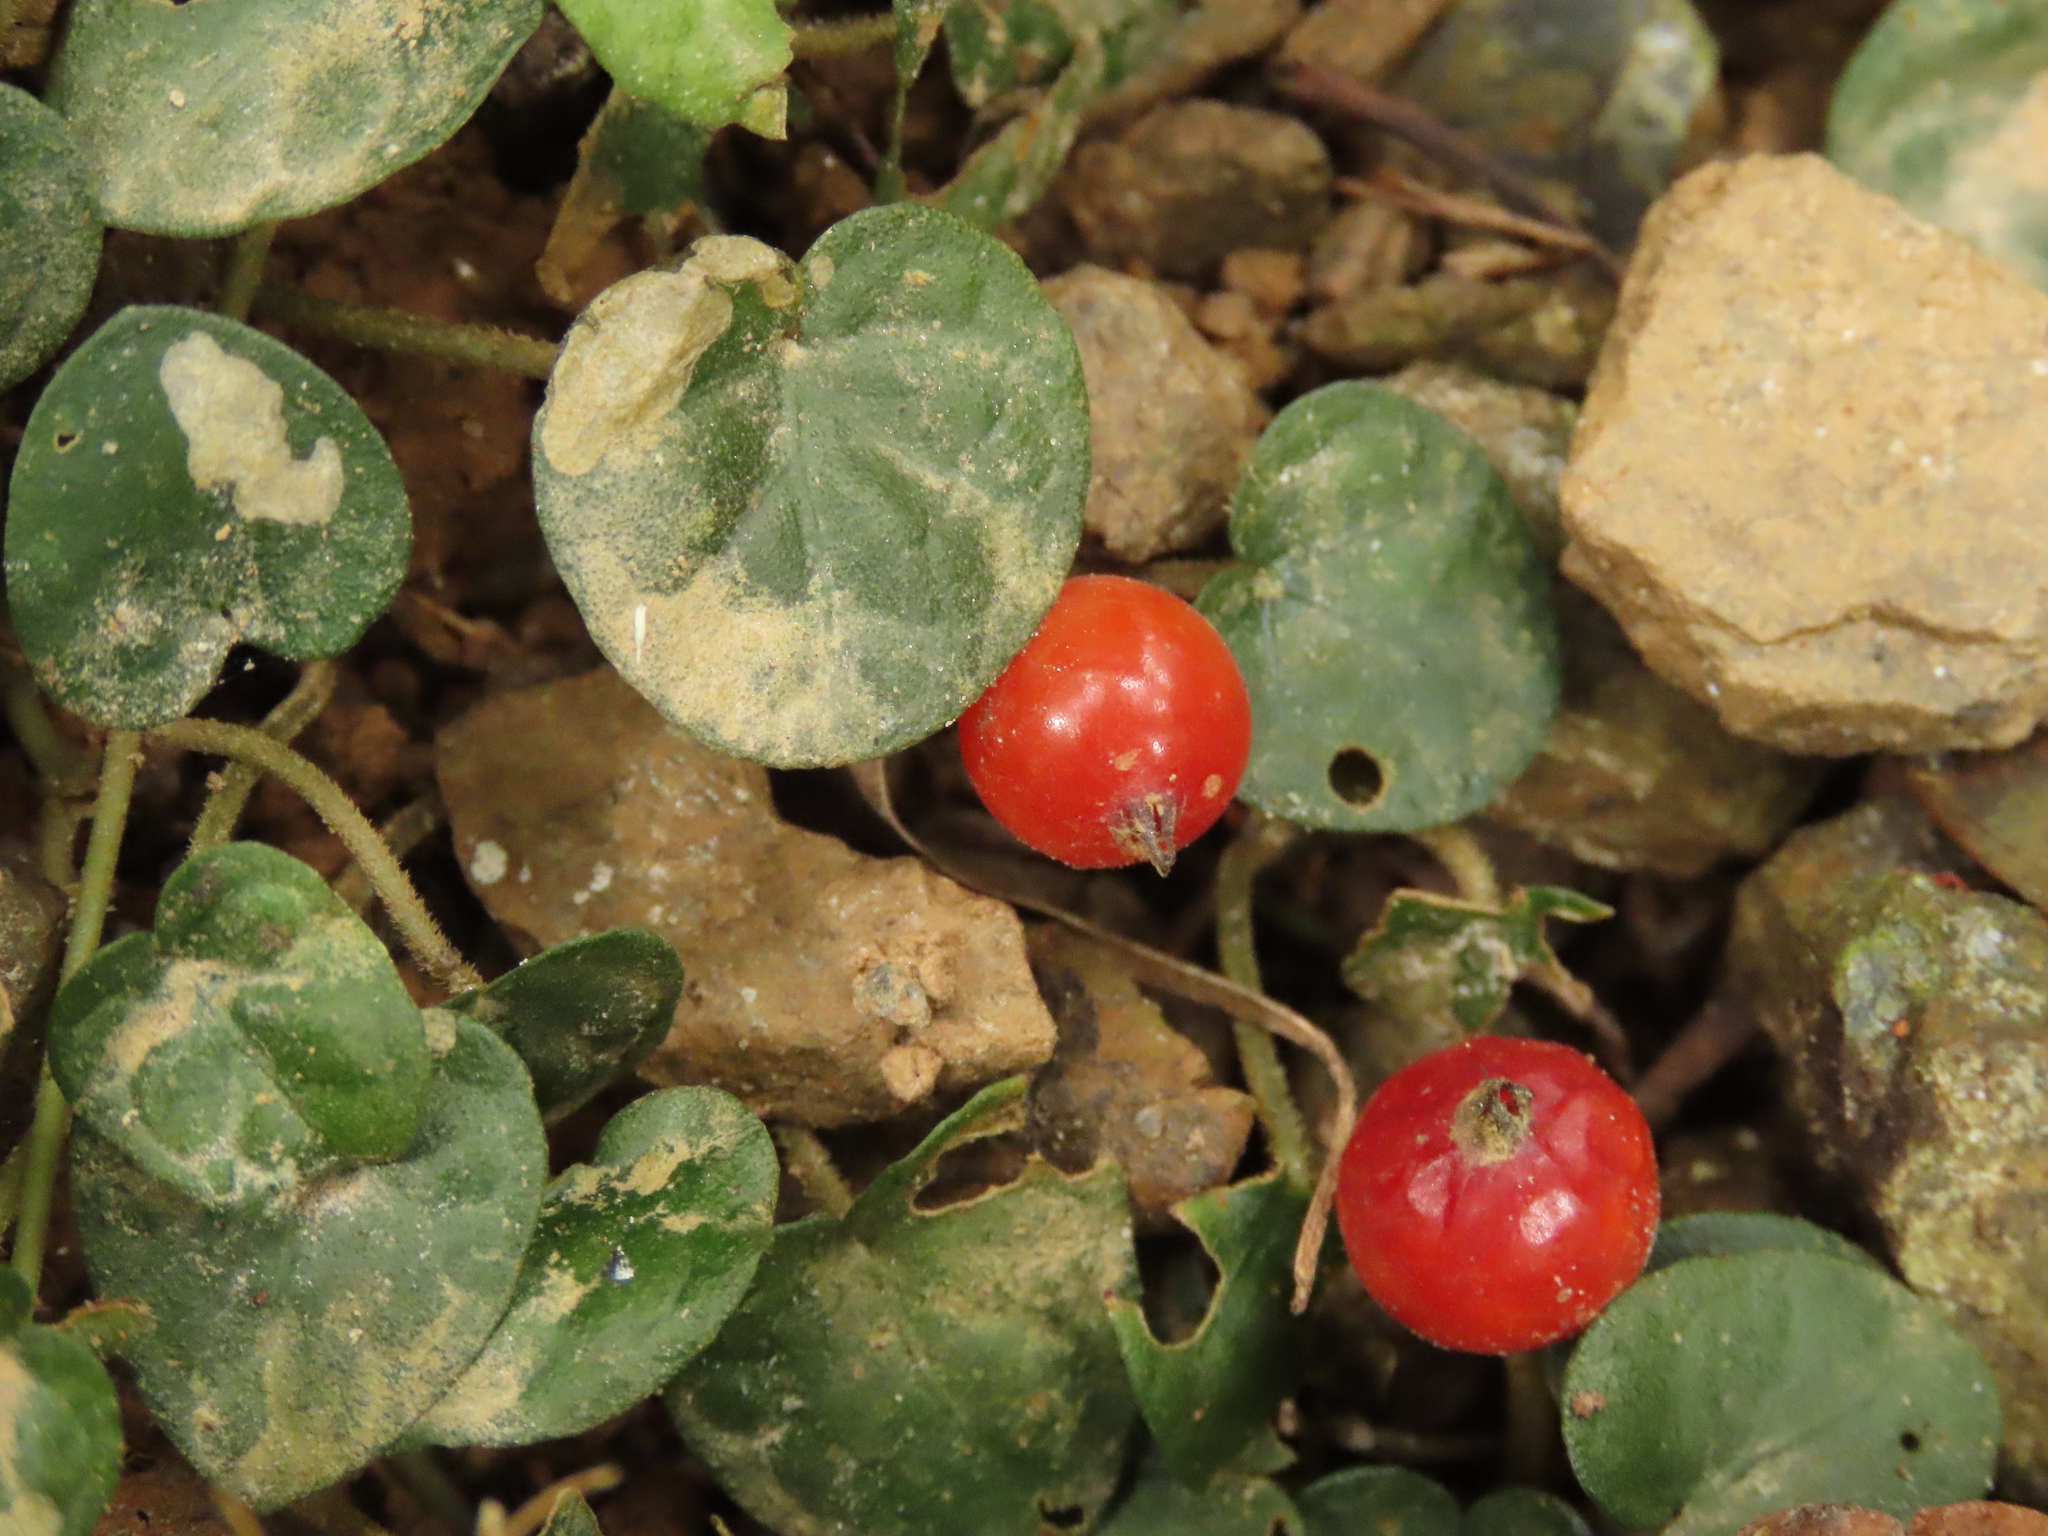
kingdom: Plantae
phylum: Tracheophyta
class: Magnoliopsida
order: Gentianales
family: Rubiaceae
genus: Geophila
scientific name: Geophila herbacea
